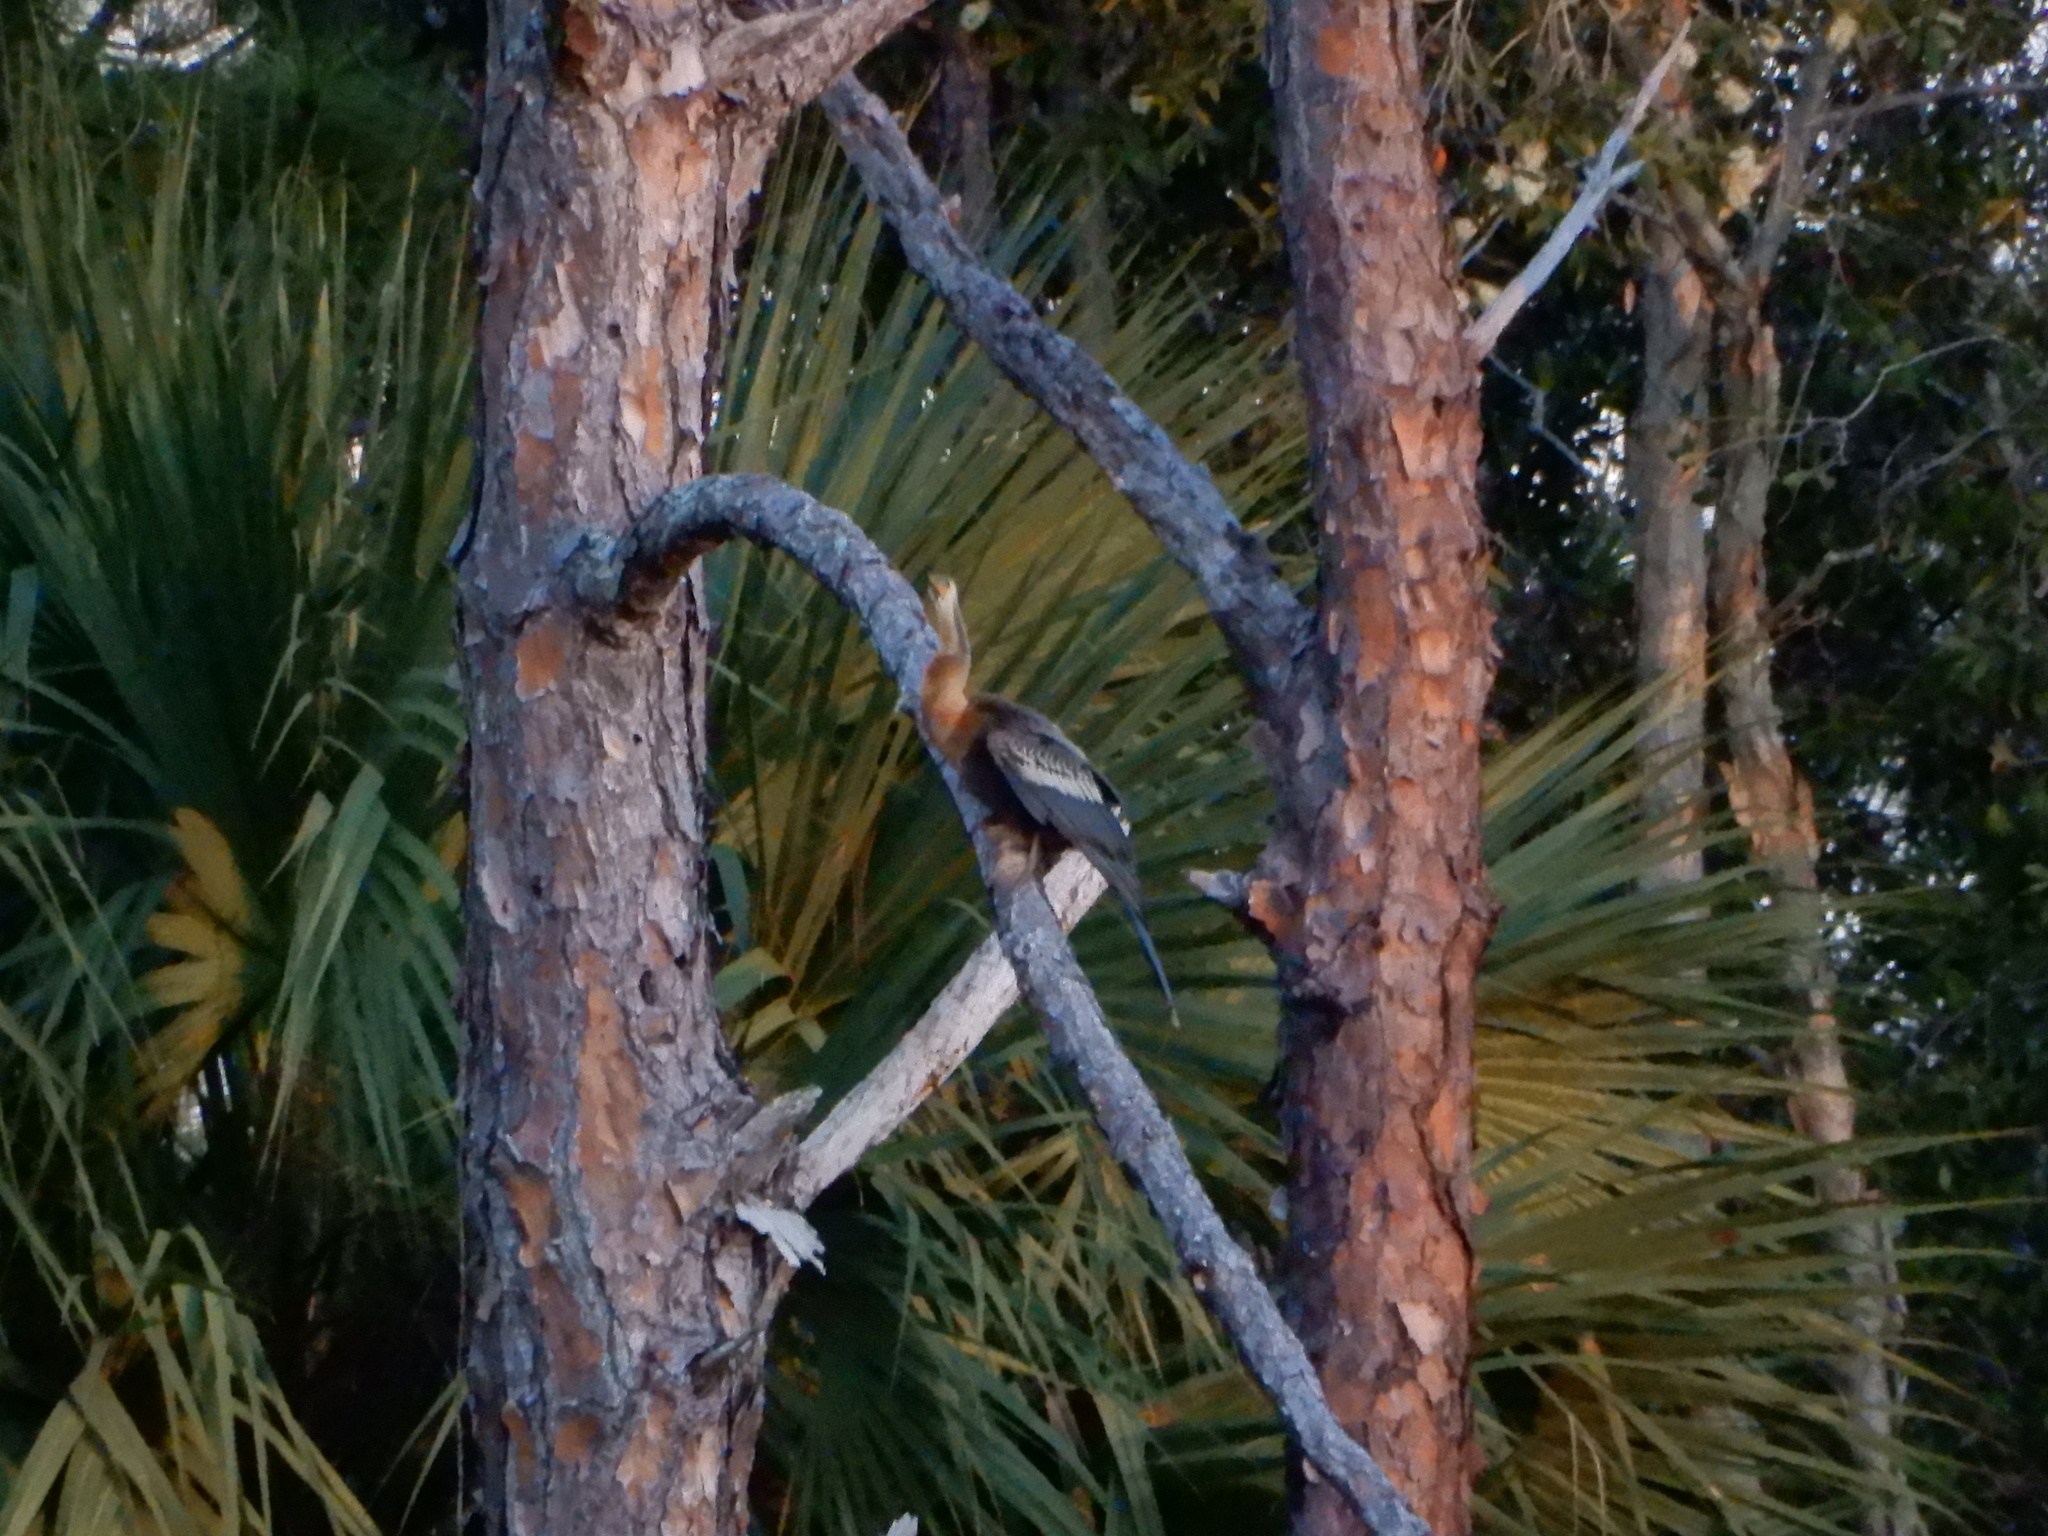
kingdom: Animalia
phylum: Chordata
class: Aves
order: Suliformes
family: Anhingidae
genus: Anhinga
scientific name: Anhinga anhinga
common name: Anhinga
